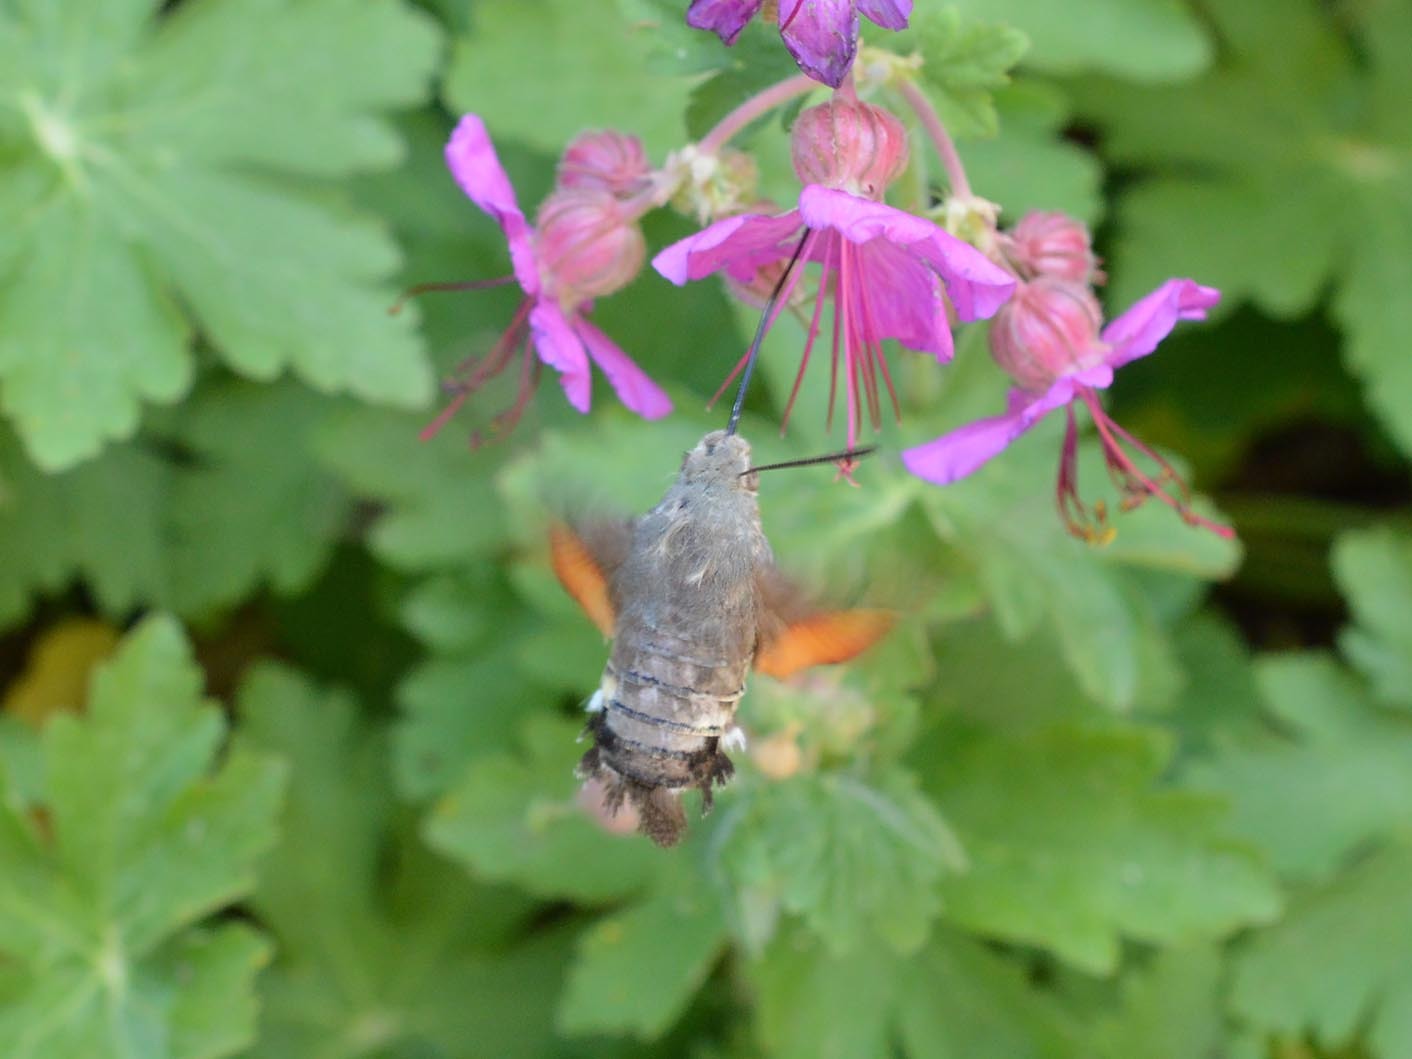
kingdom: Animalia
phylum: Arthropoda
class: Insecta
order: Lepidoptera
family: Sphingidae
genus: Macroglossum
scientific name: Macroglossum stellatarum
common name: Humming-bird hawk-moth
